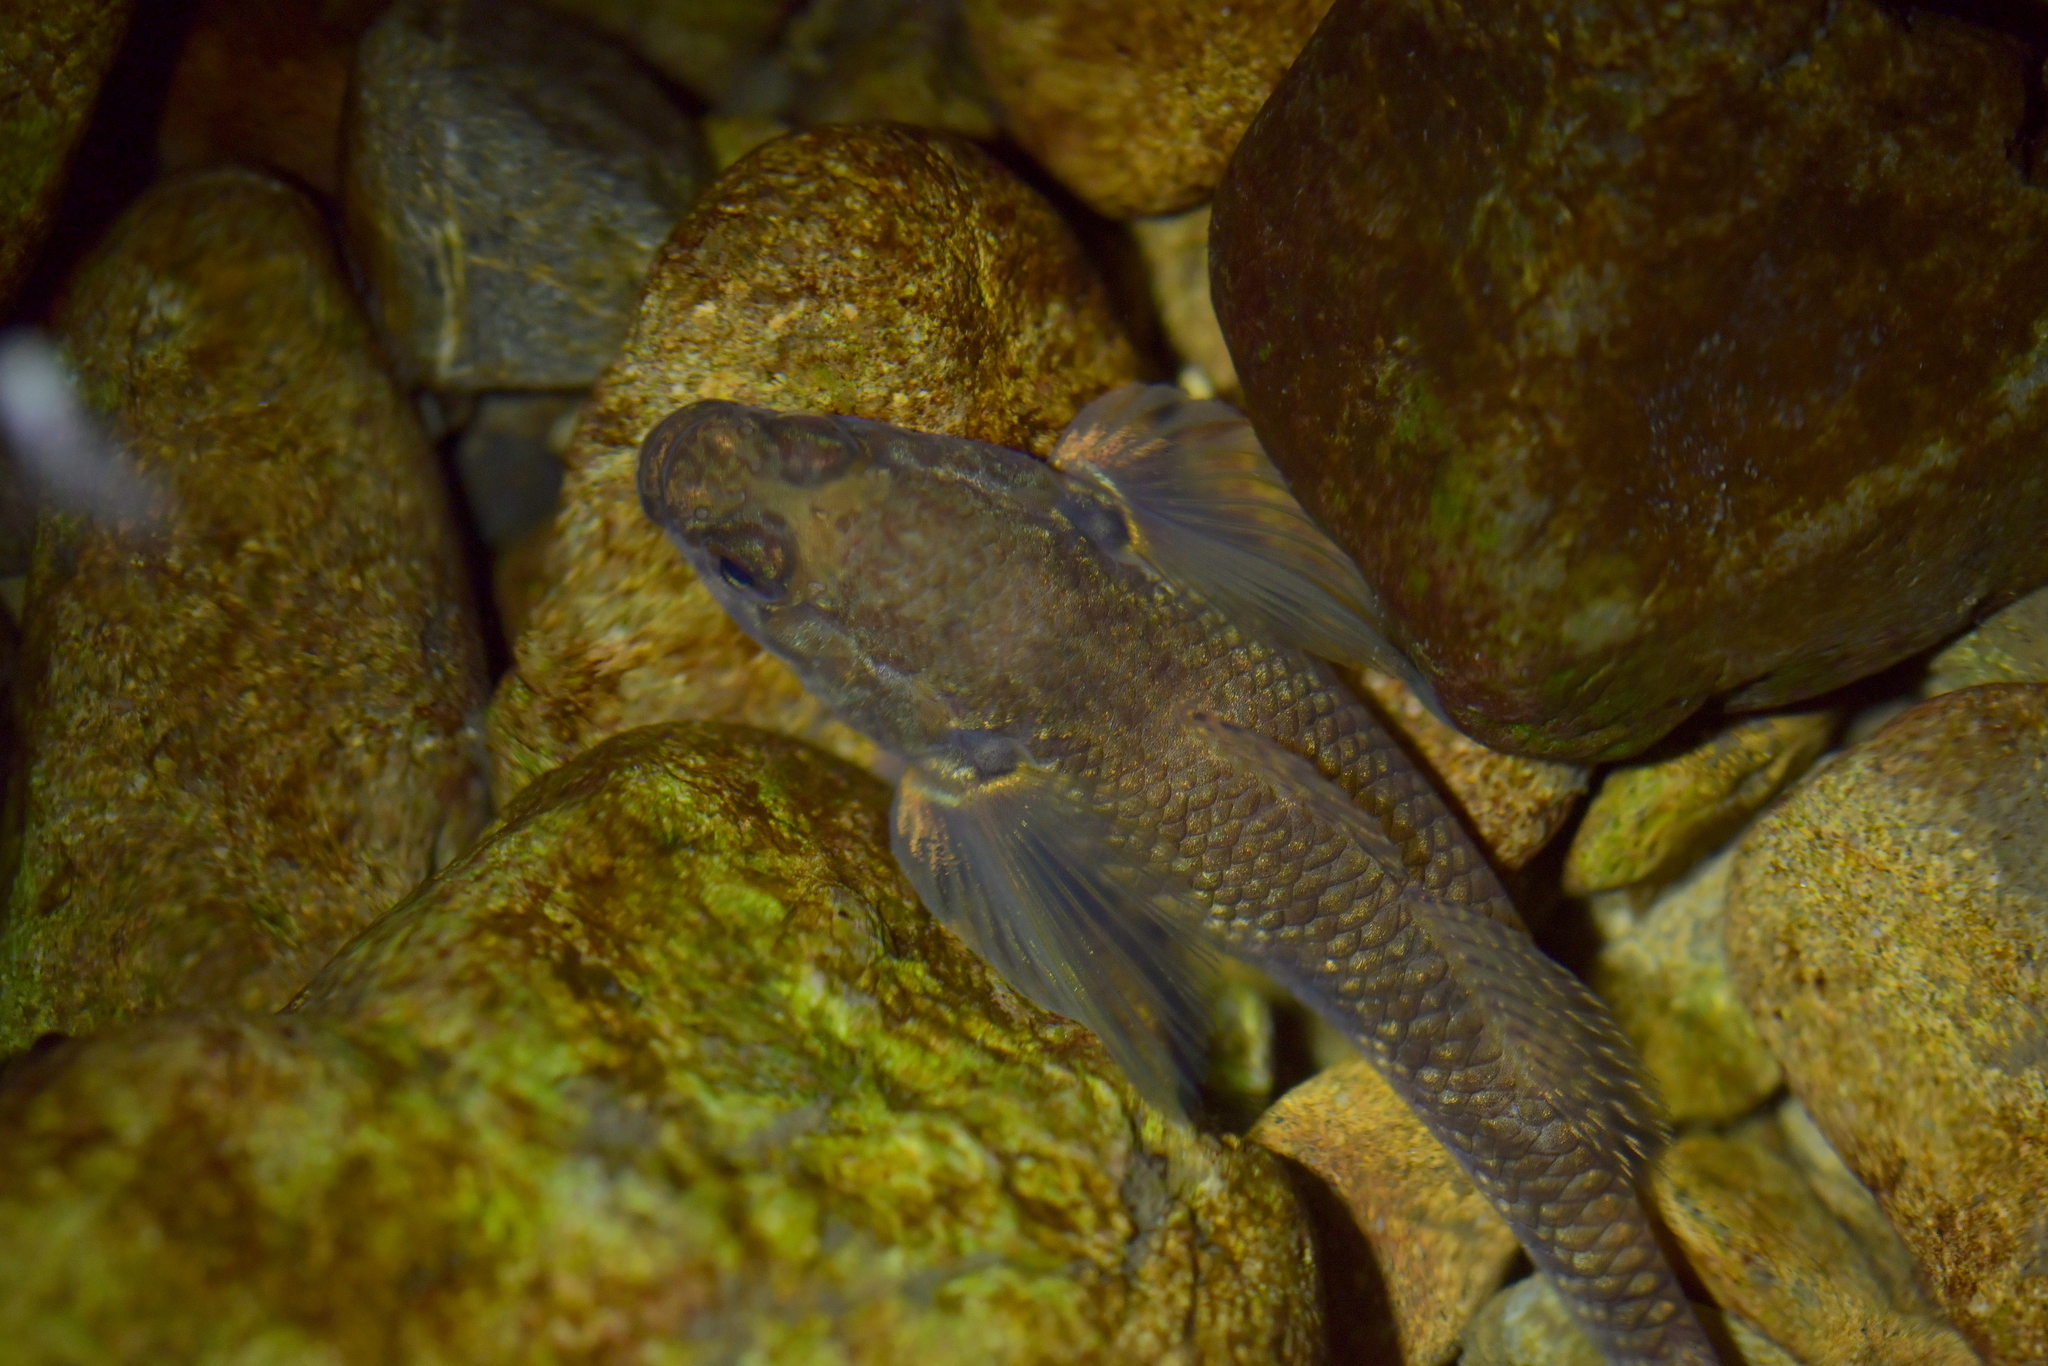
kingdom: Animalia
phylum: Chordata
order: Perciformes
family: Eleotridae
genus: Gobiomorphus
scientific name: Gobiomorphus cotidianus
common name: Common bully
